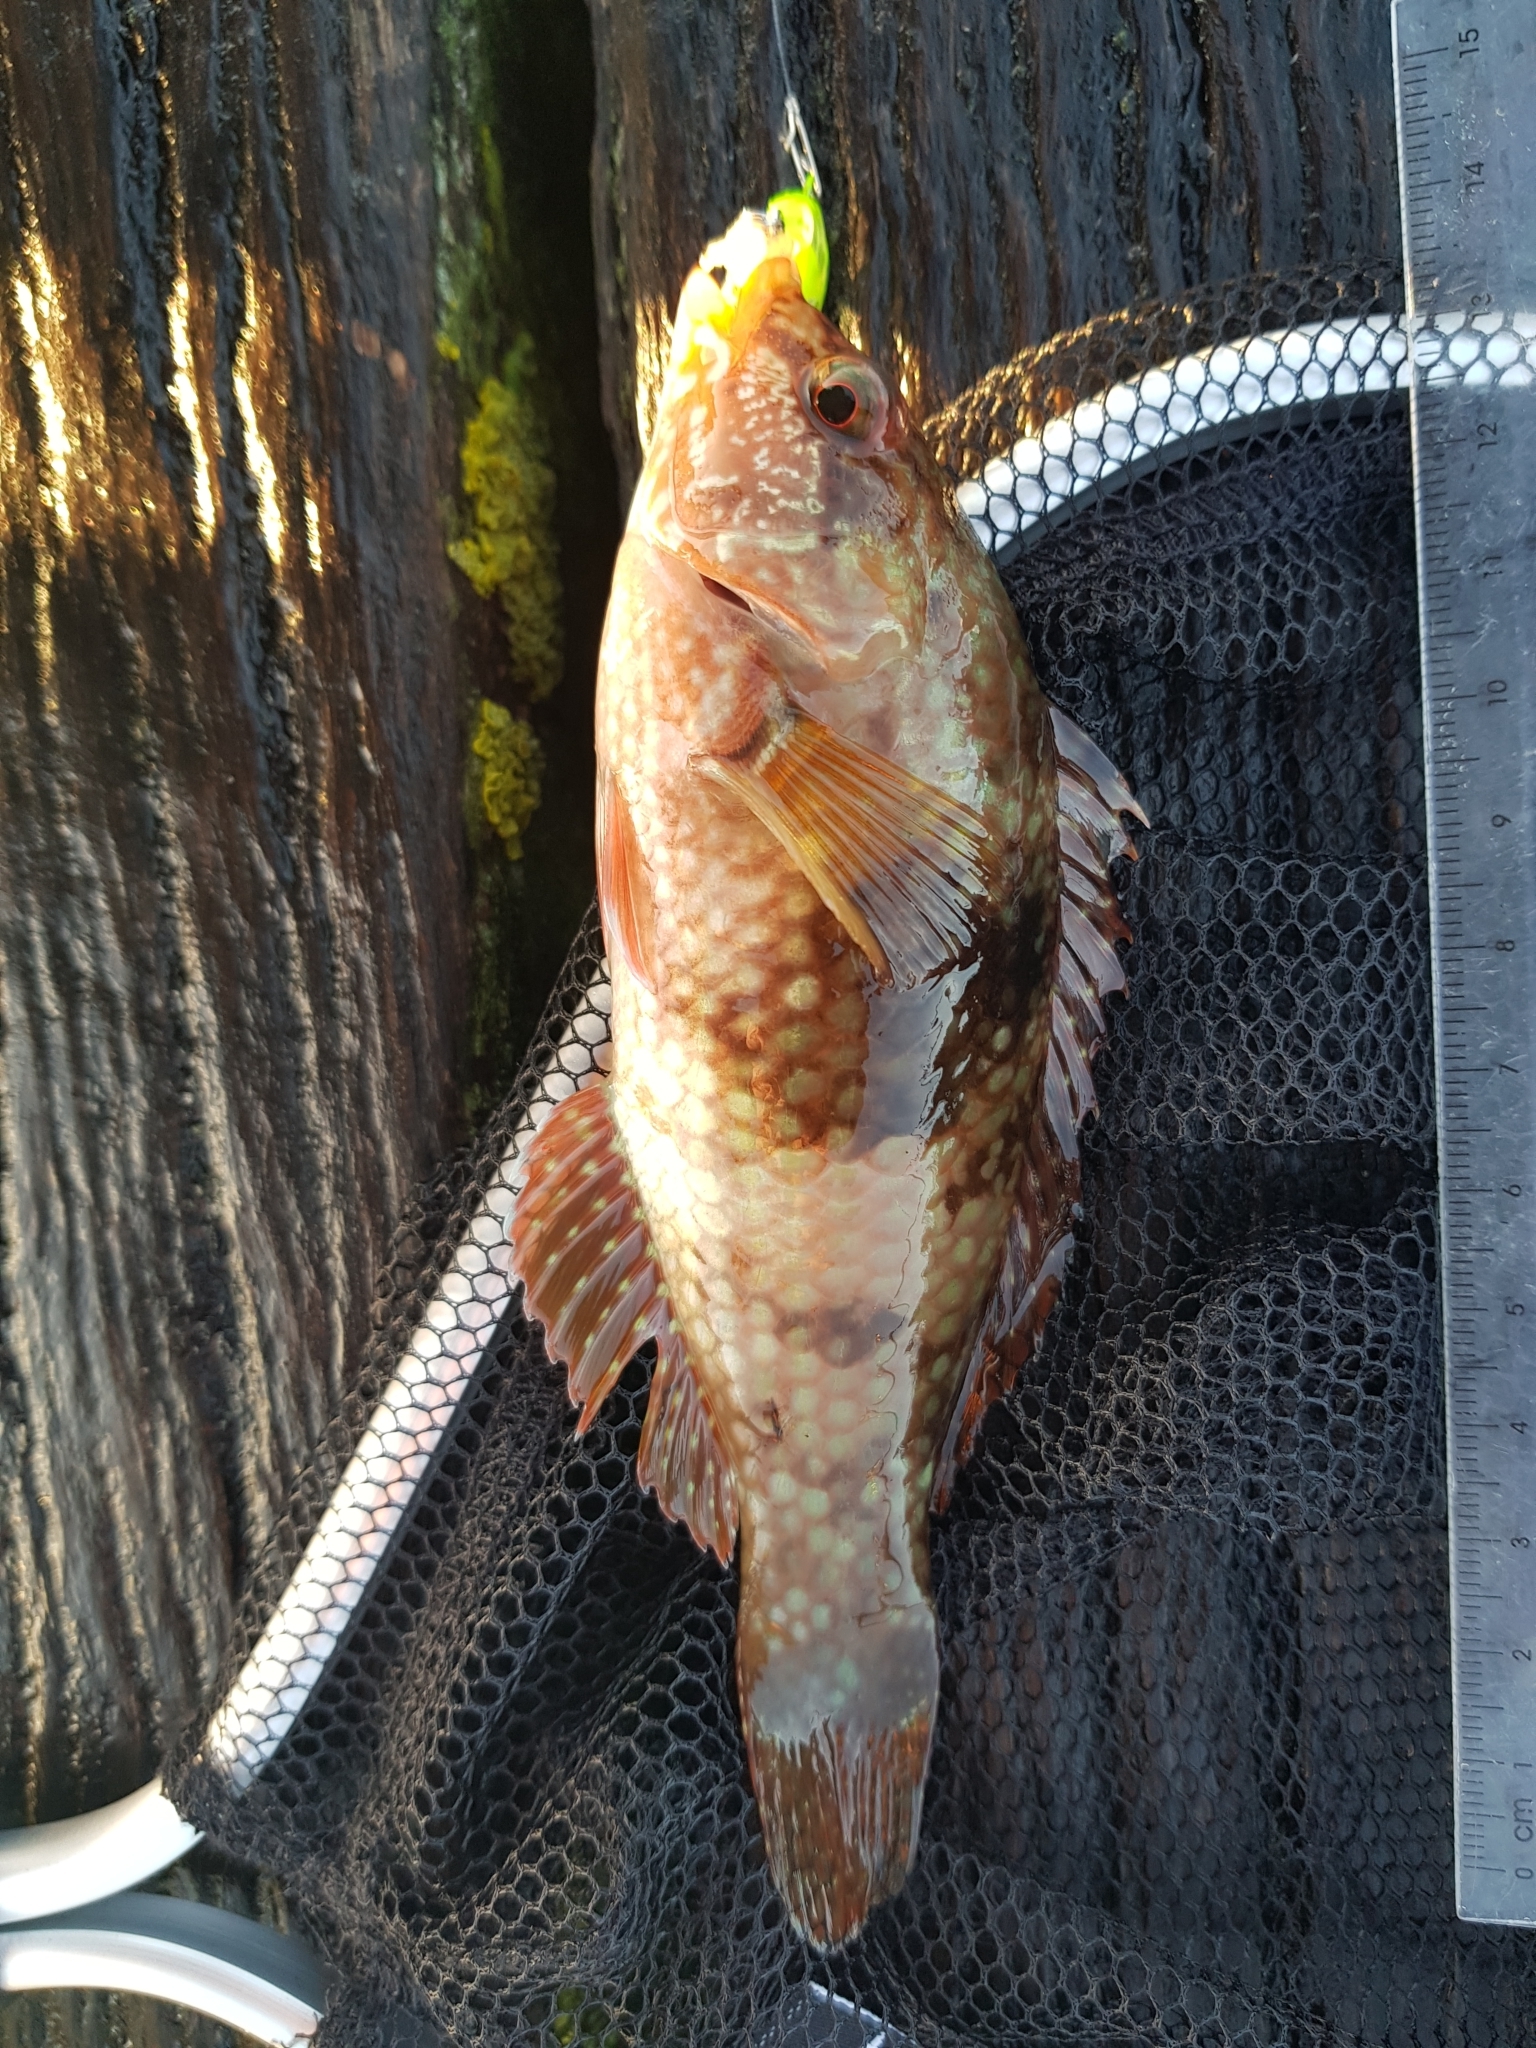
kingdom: Animalia
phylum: Chordata
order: Perciformes
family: Labridae
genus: Notolabrus
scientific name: Notolabrus tetricus
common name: Blue-throated parrotfish
